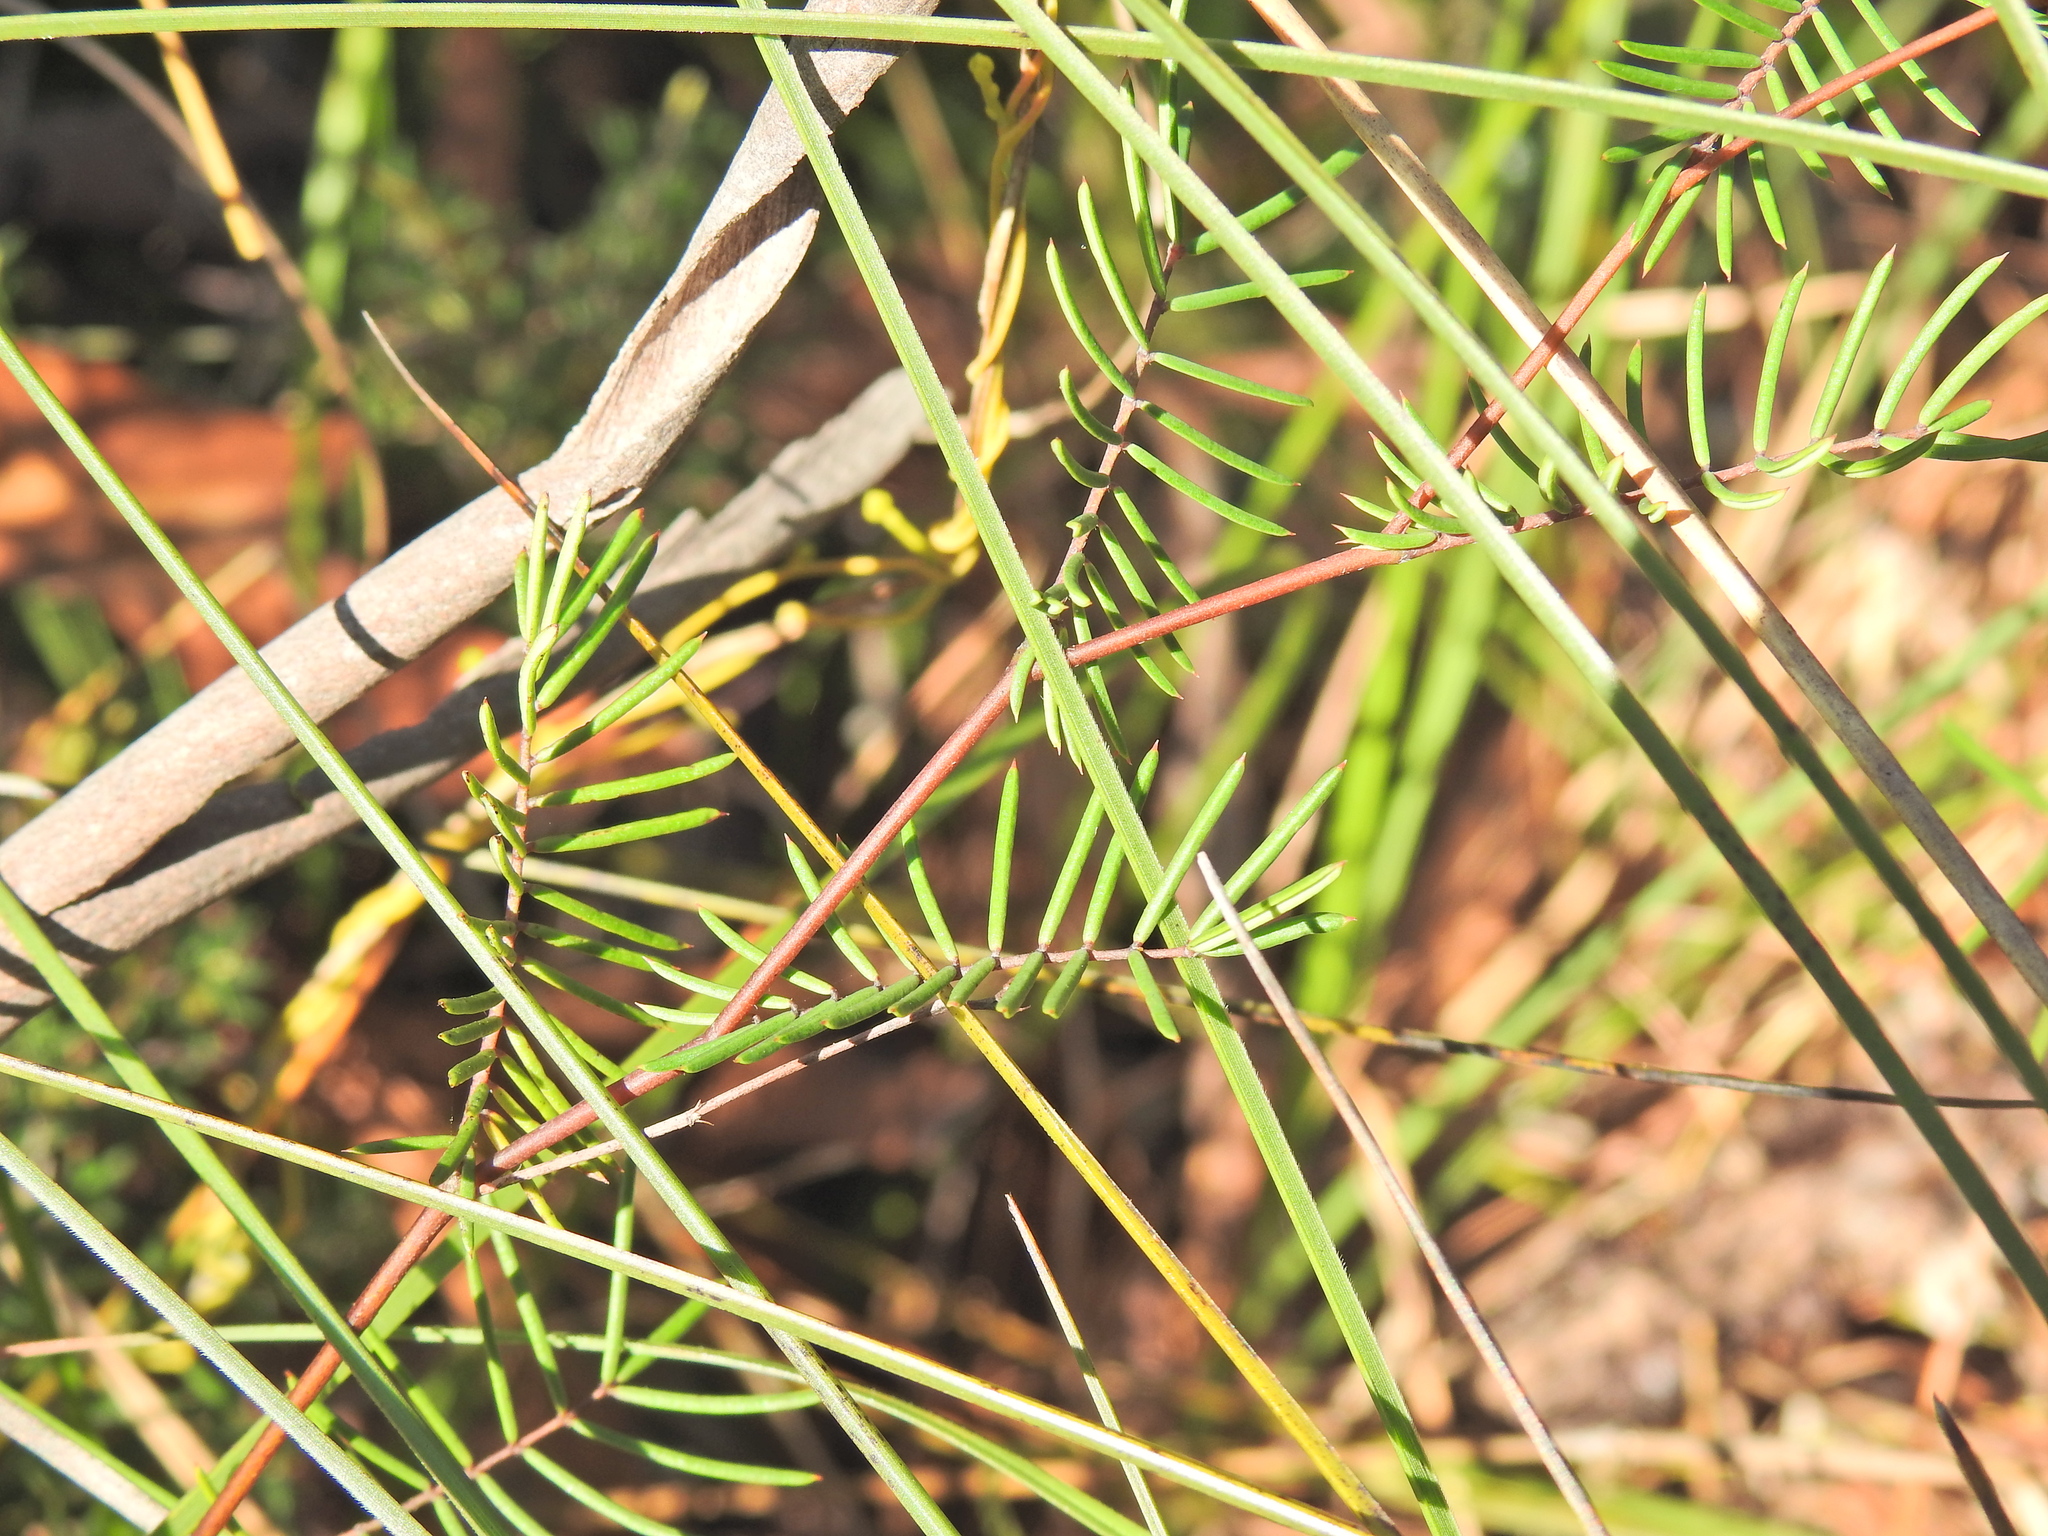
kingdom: Plantae
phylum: Tracheophyta
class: Magnoliopsida
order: Fabales
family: Fabaceae
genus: Gompholobium
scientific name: Gompholobium pinnatum
